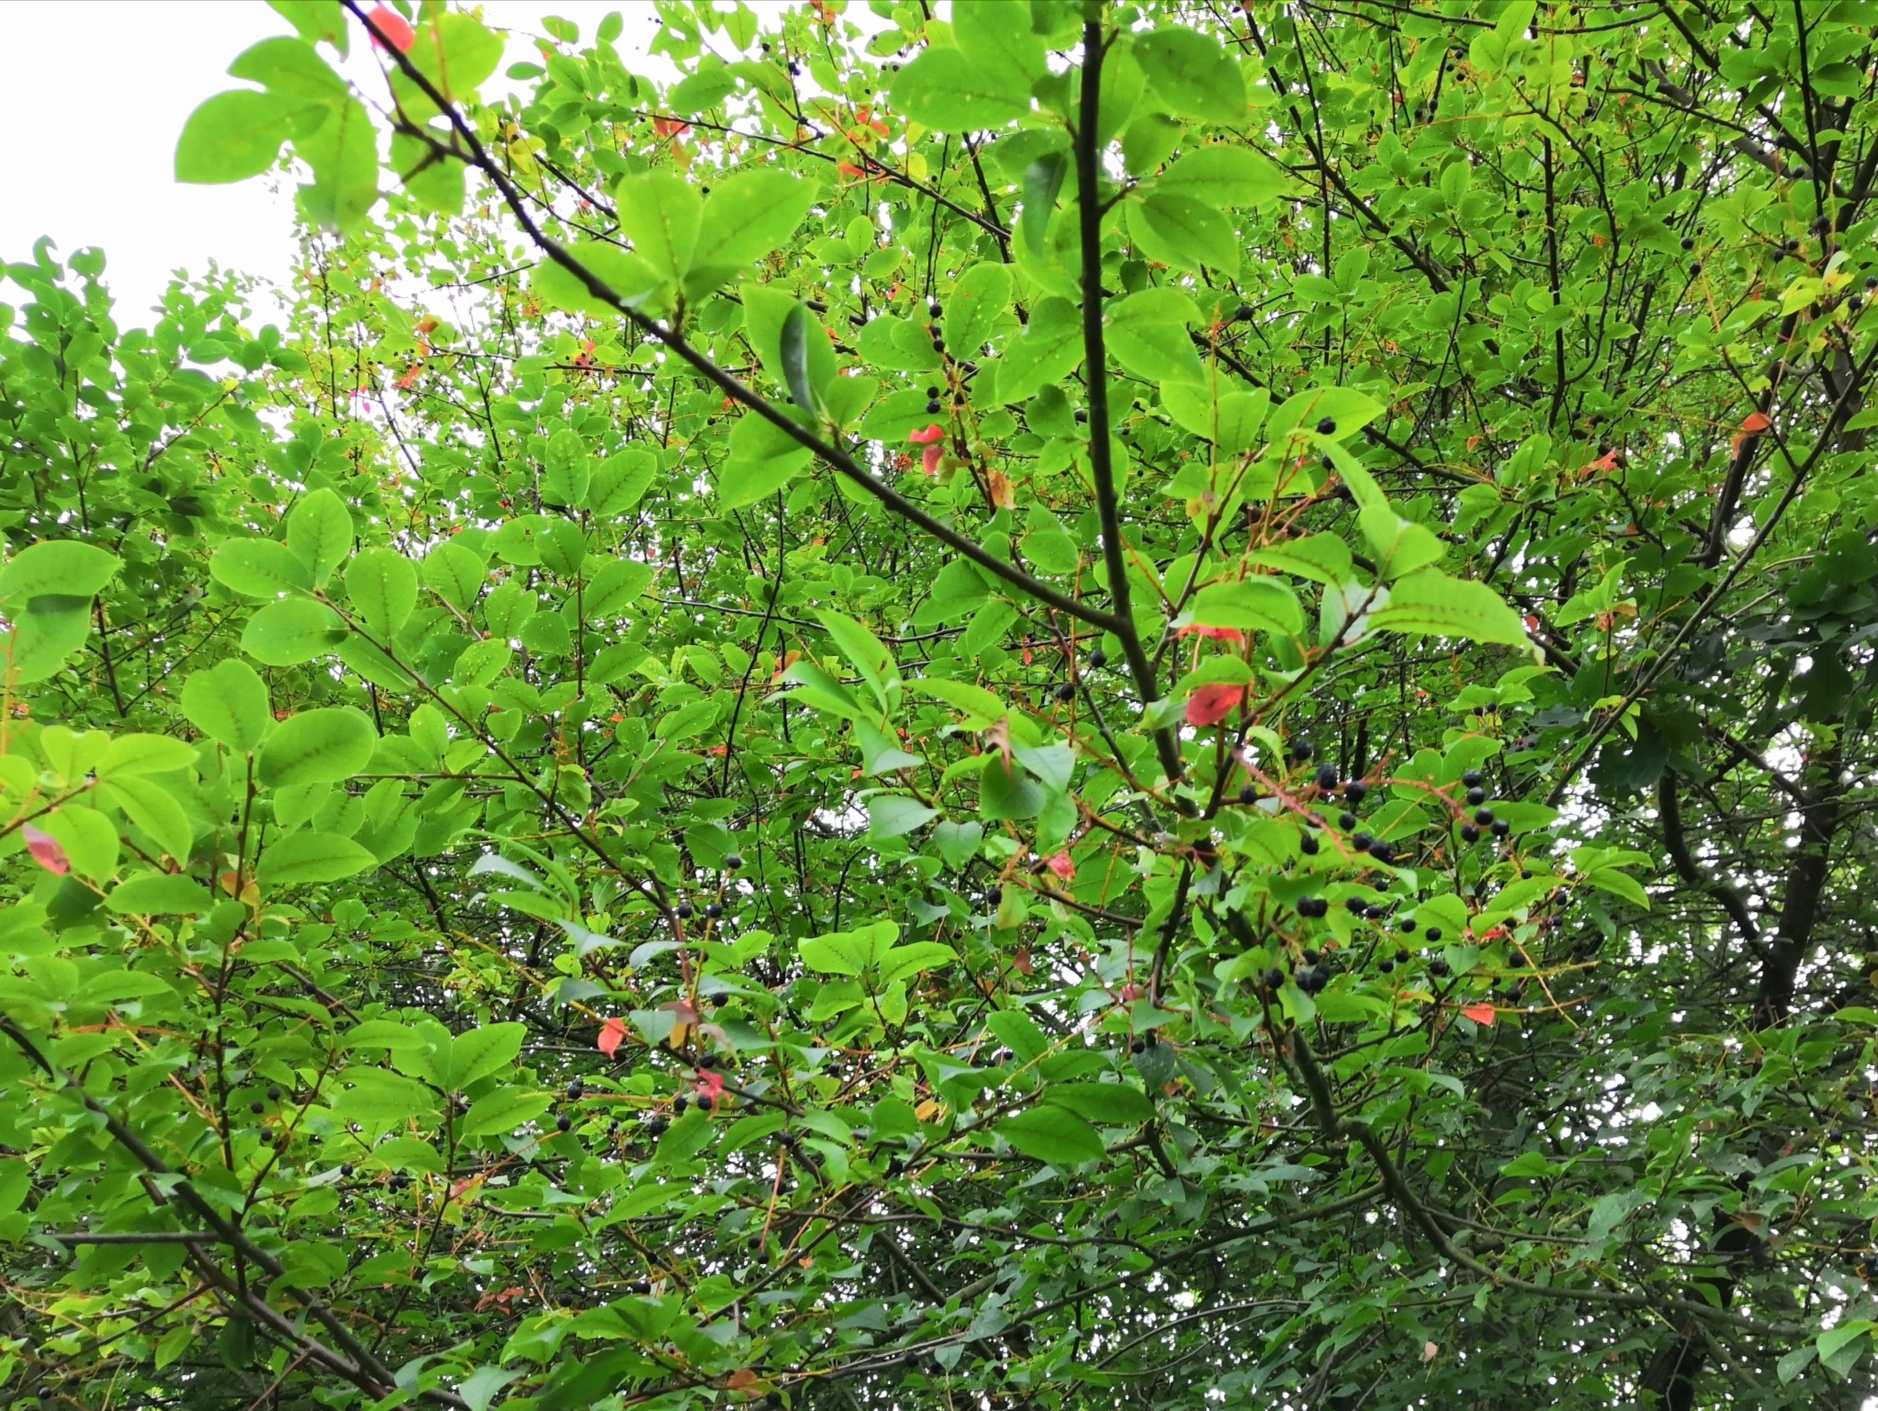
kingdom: Plantae
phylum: Tracheophyta
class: Magnoliopsida
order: Rosales
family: Rosaceae
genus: Prunus
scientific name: Prunus padus
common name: Bird cherry
